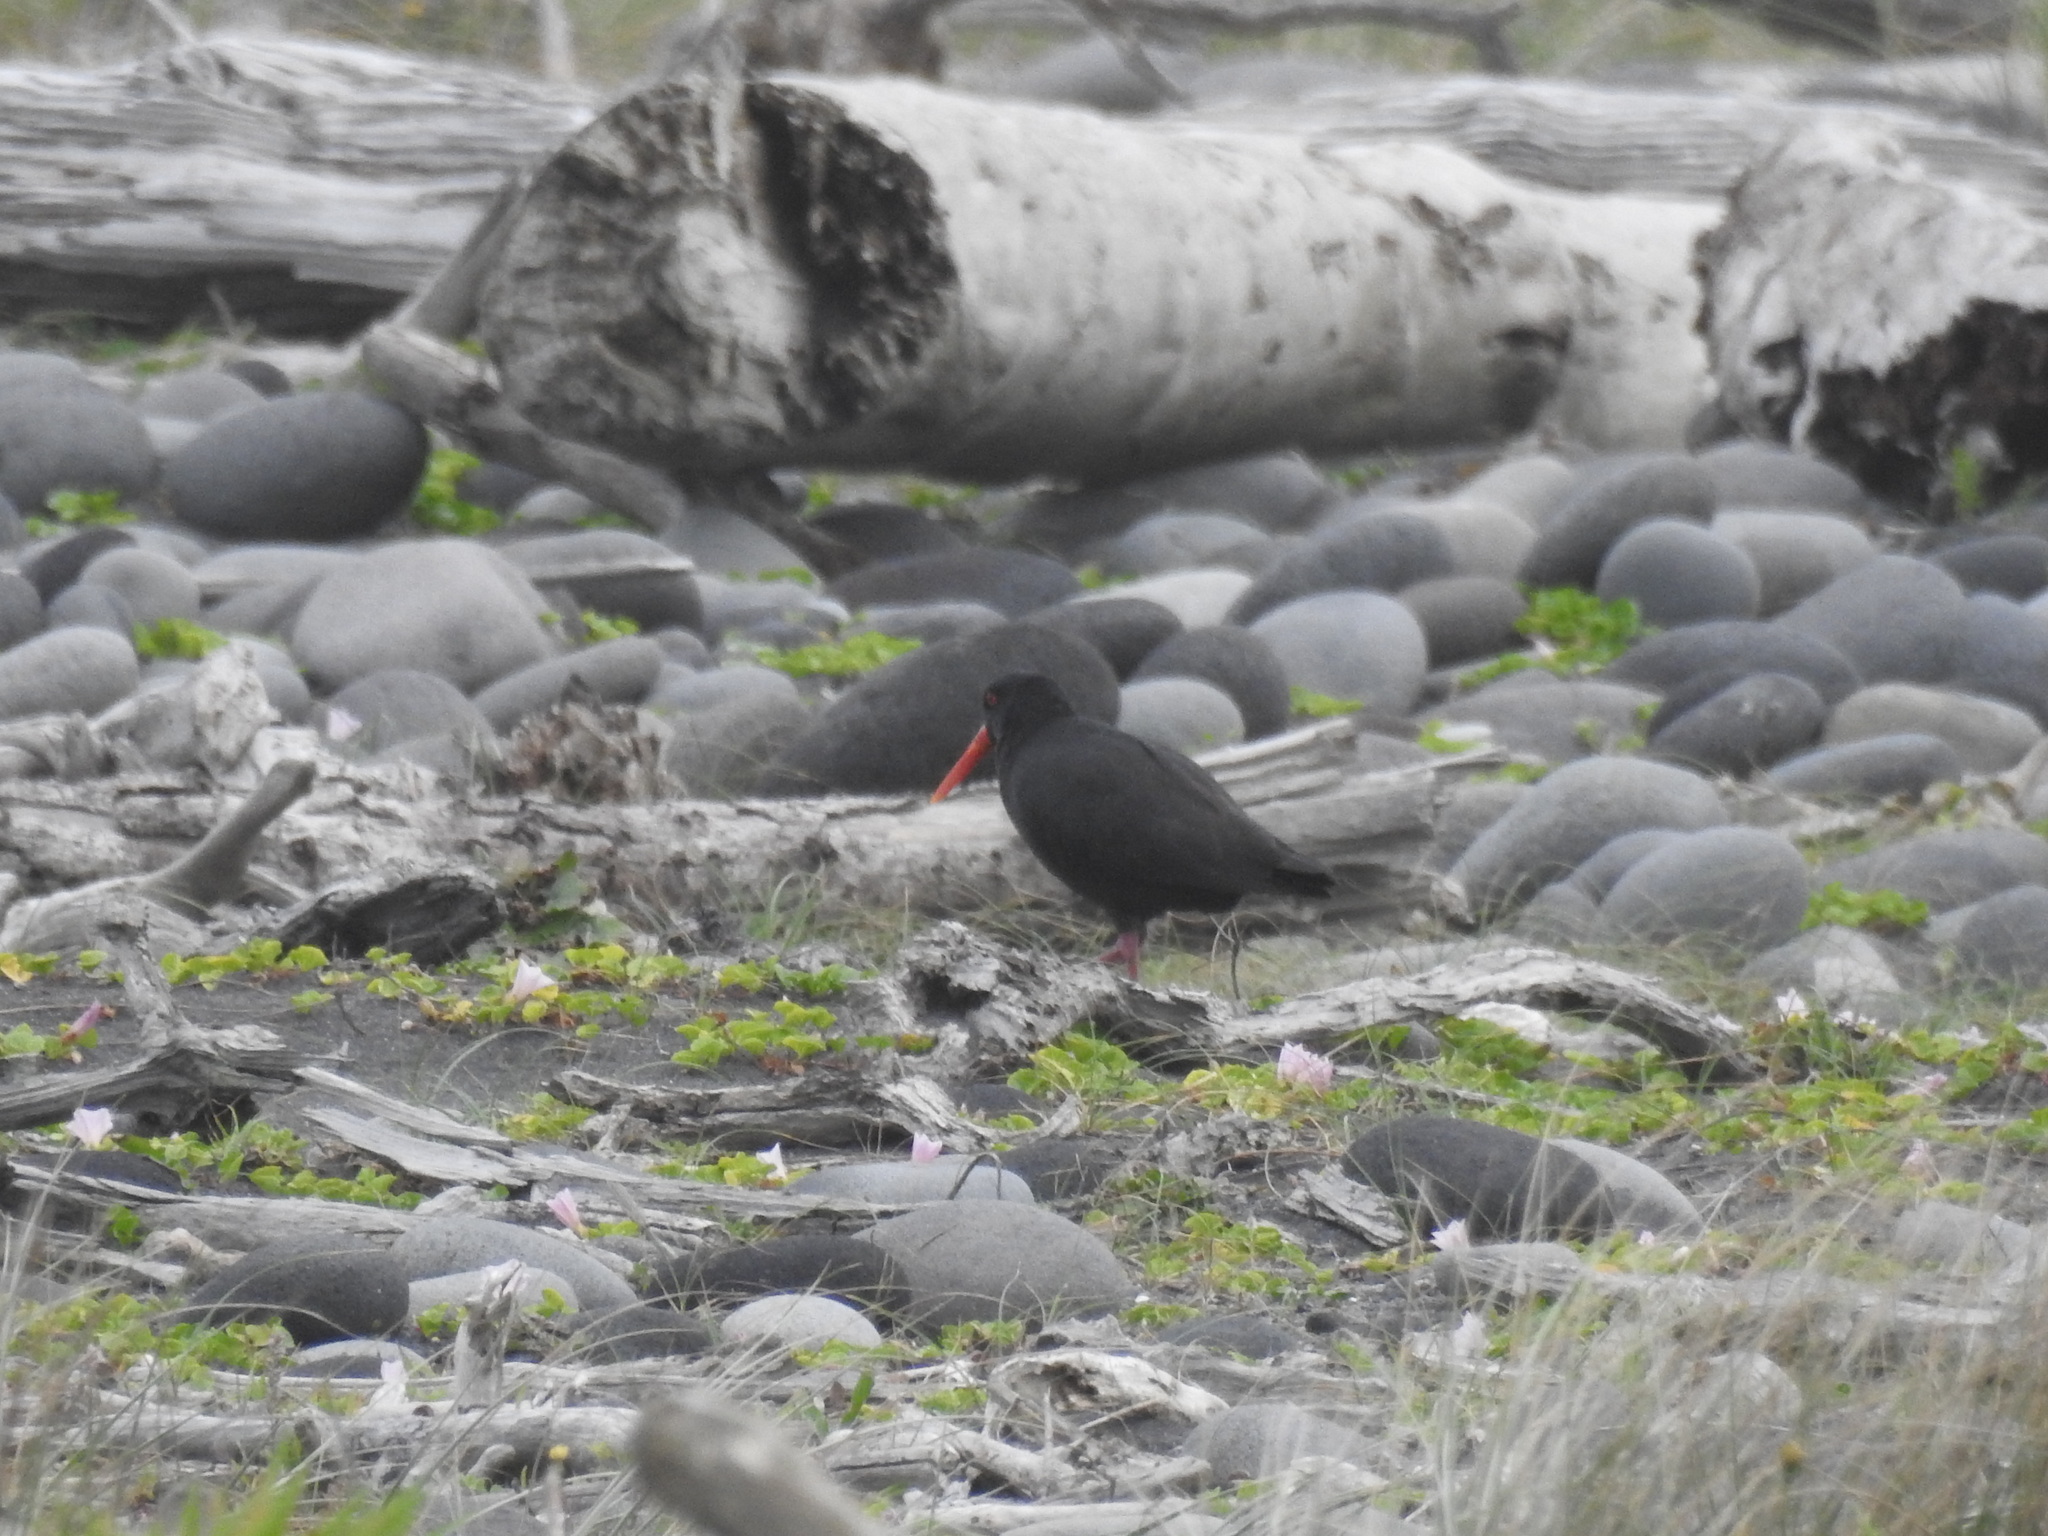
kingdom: Animalia
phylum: Chordata
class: Aves
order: Charadriiformes
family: Haematopodidae
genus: Haematopus
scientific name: Haematopus unicolor
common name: Variable oystercatcher
